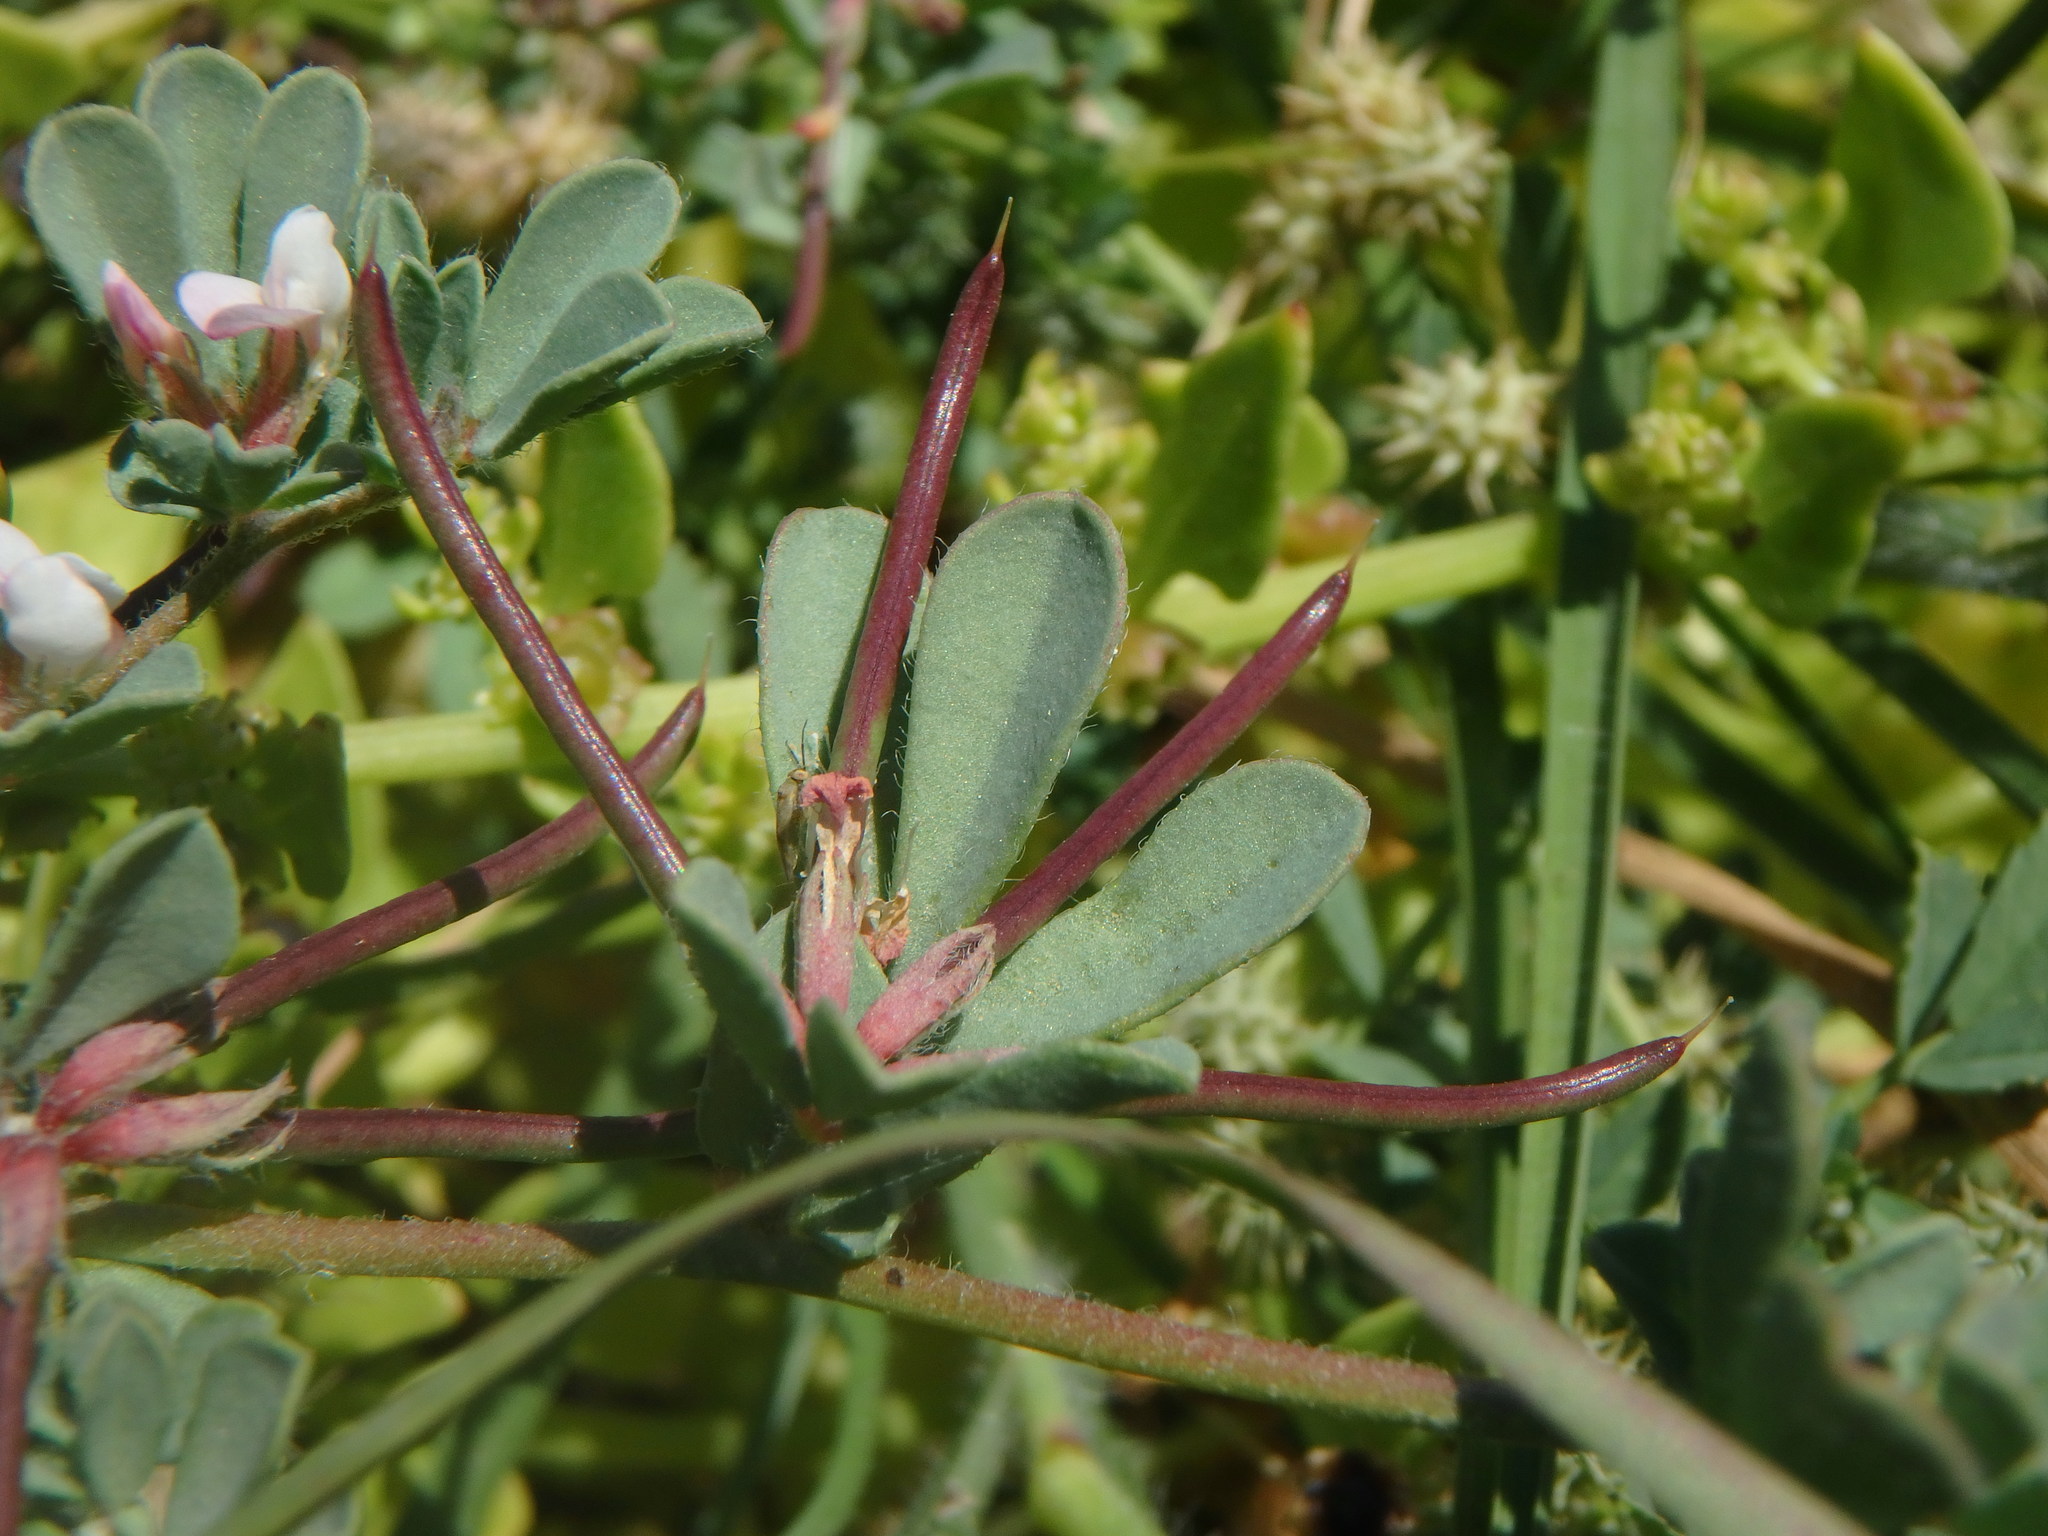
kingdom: Plantae
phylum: Tracheophyta
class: Magnoliopsida
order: Fabales
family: Fabaceae
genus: Lotus
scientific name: Lotus glinoides
